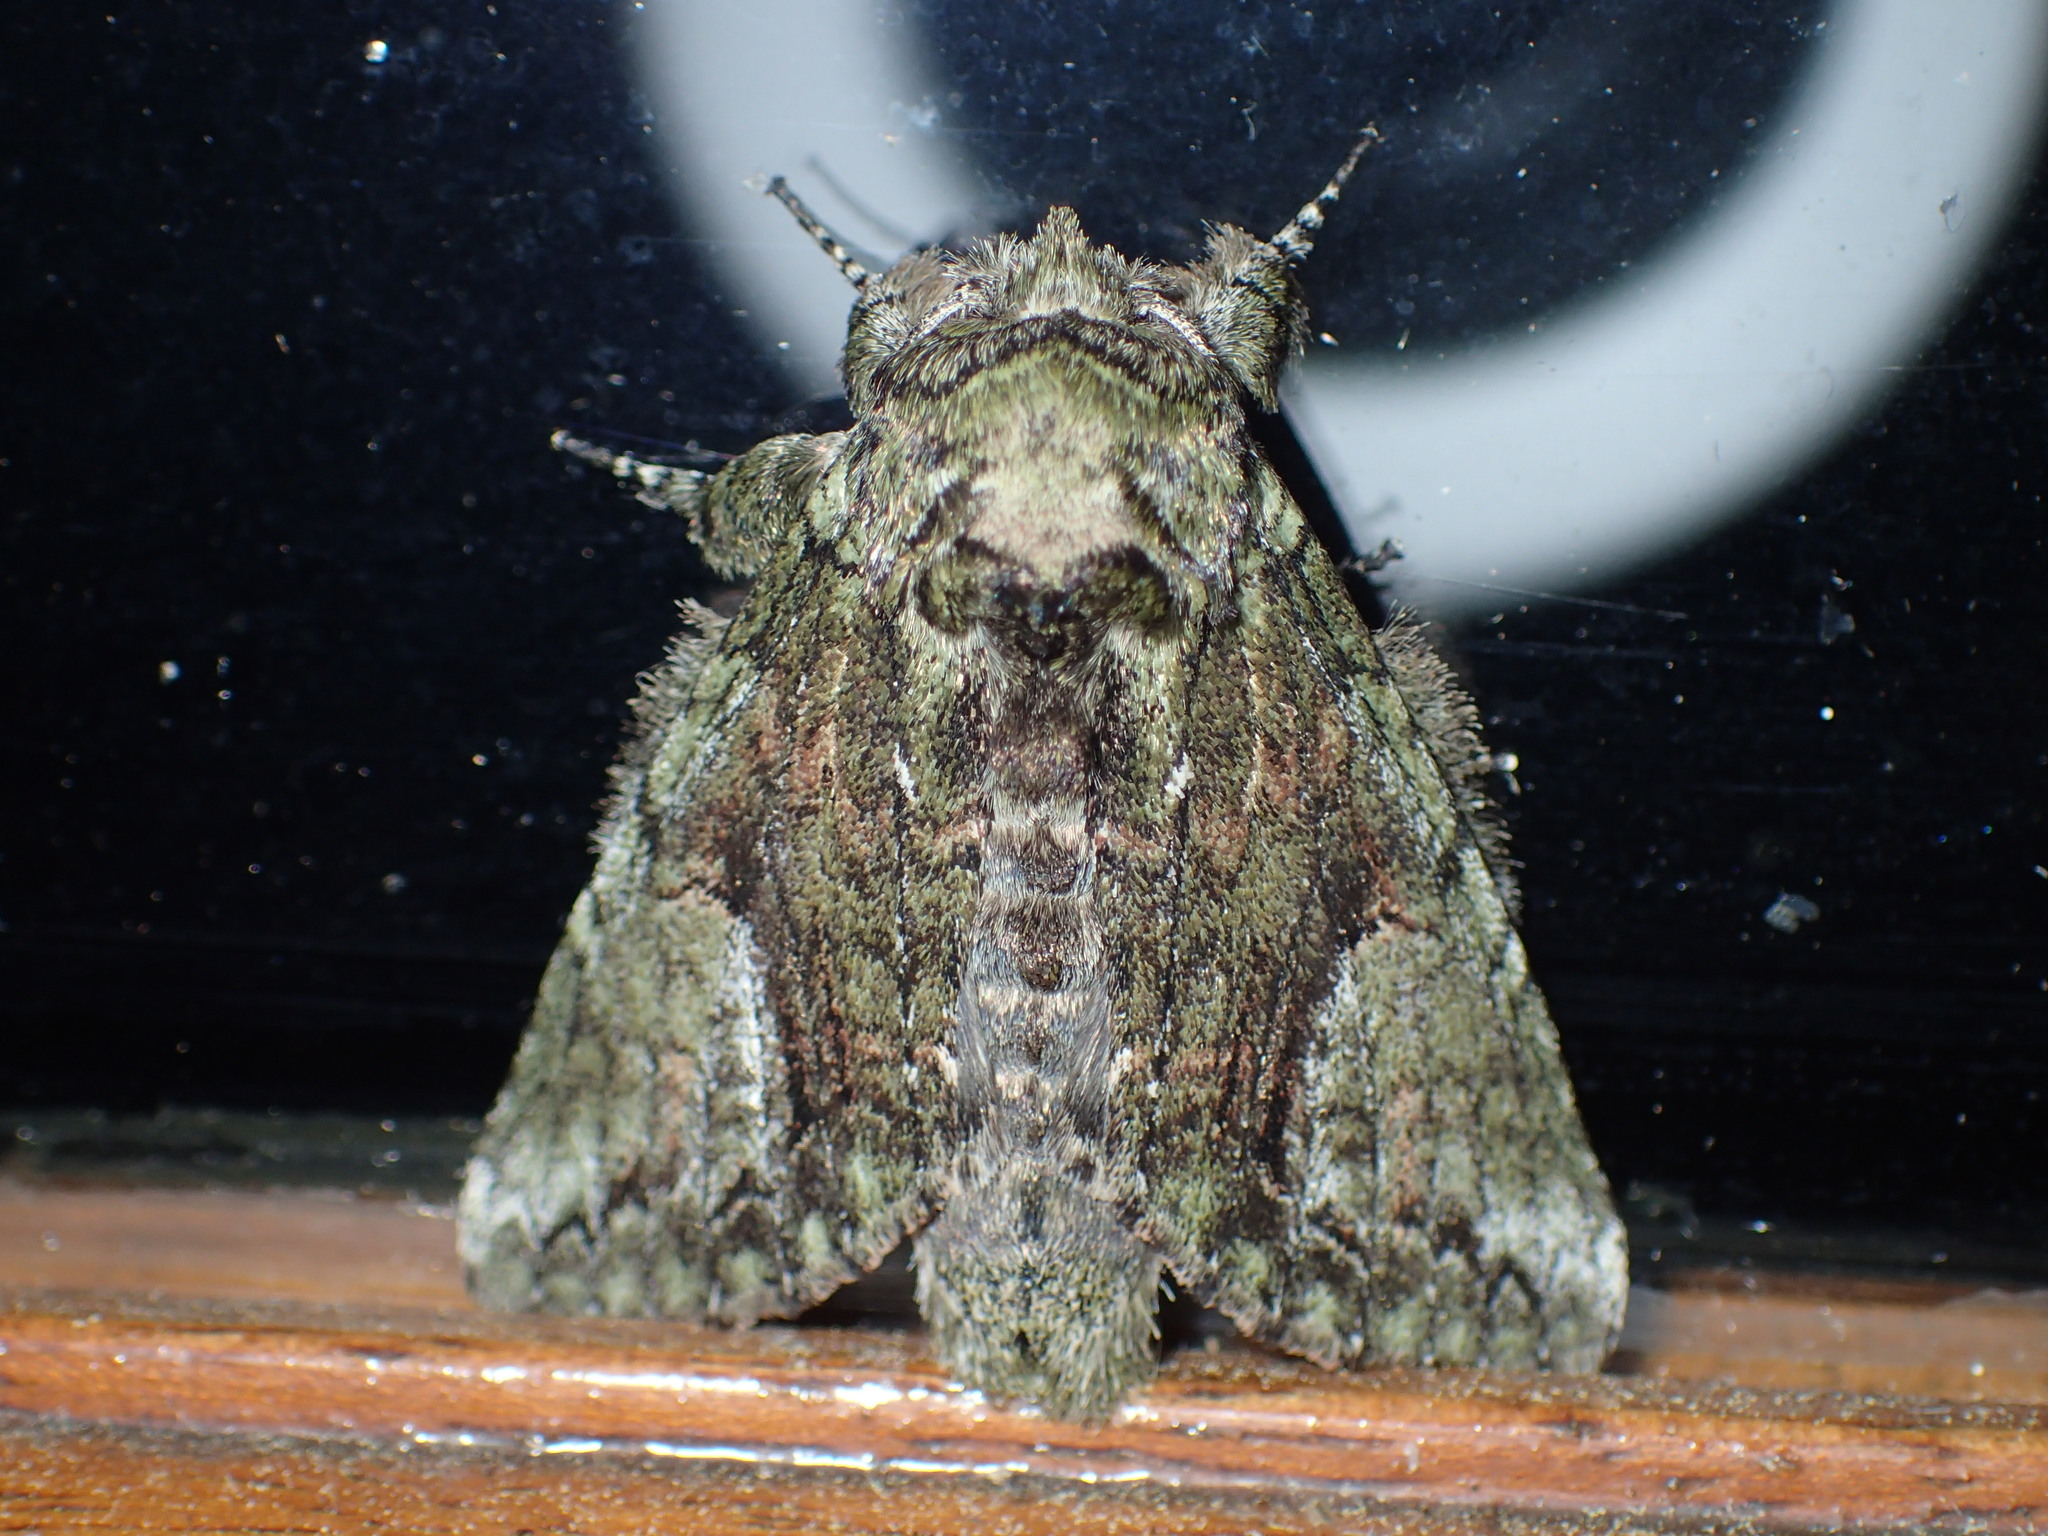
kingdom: Animalia
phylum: Arthropoda
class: Insecta
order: Lepidoptera
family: Notodontidae
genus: Heterocampa
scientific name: Heterocampa
